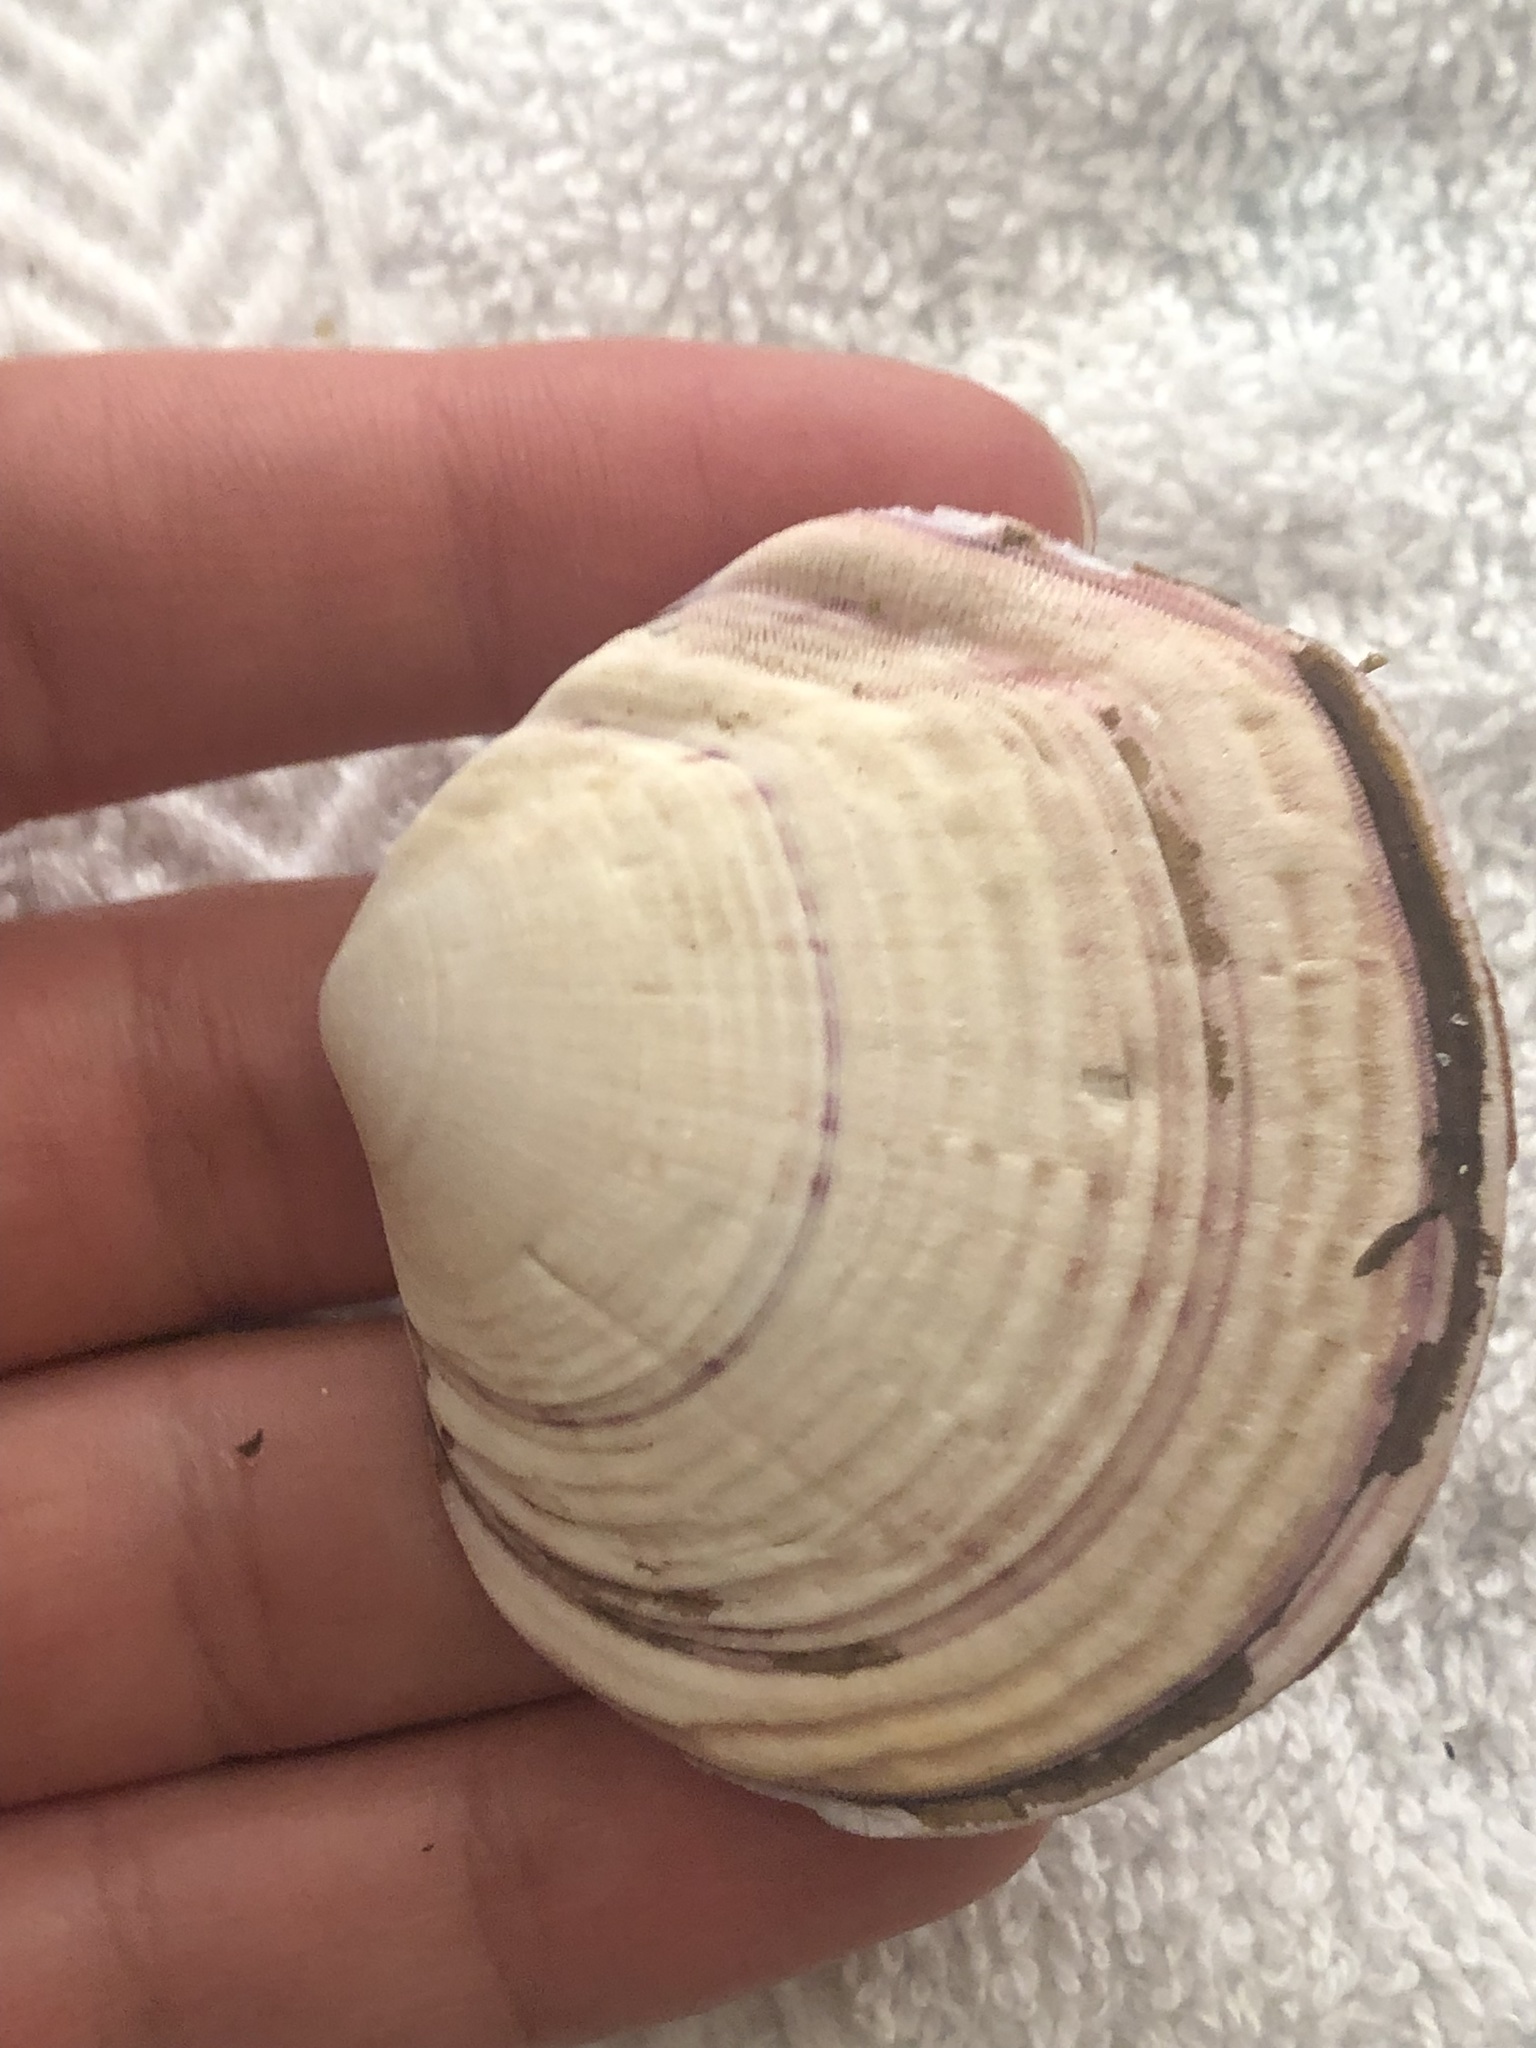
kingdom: Animalia
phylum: Mollusca
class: Bivalvia
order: Cardiida
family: Semelidae
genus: Semele
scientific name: Semele decisa
